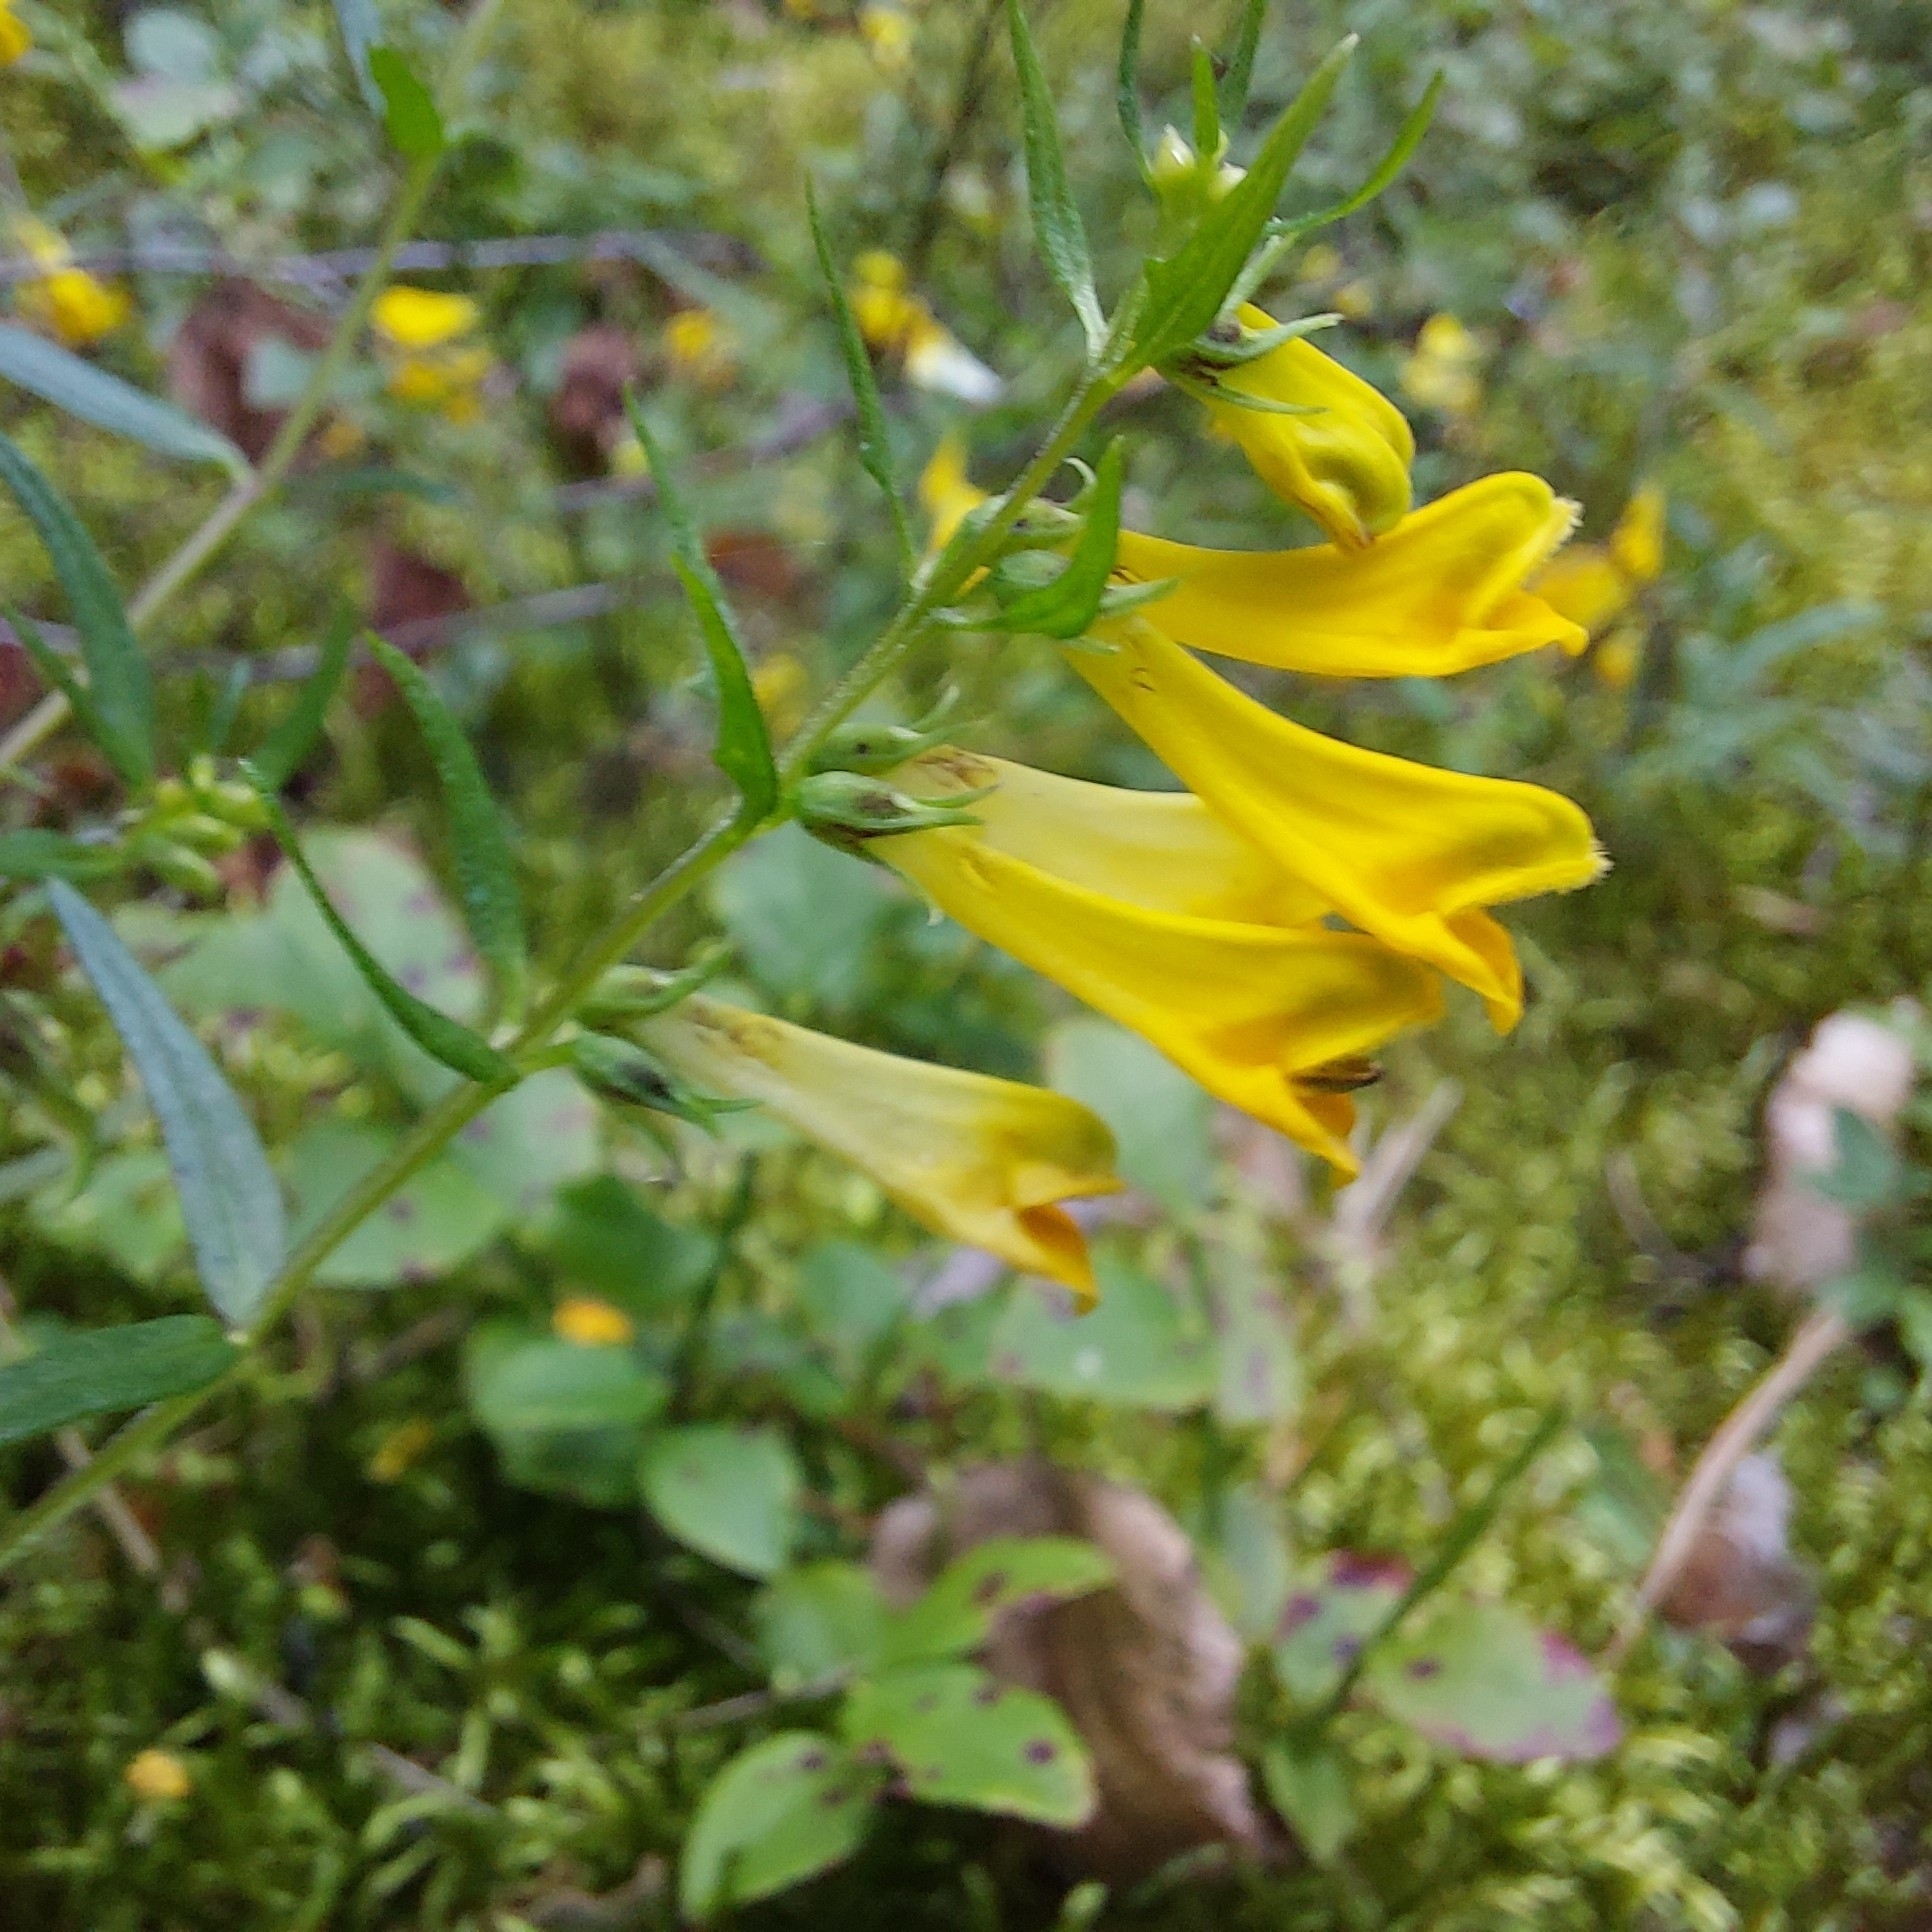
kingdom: Plantae
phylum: Tracheophyta
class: Magnoliopsida
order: Lamiales
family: Orobanchaceae
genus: Melampyrum
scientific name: Melampyrum pratense
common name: Common cow-wheat
